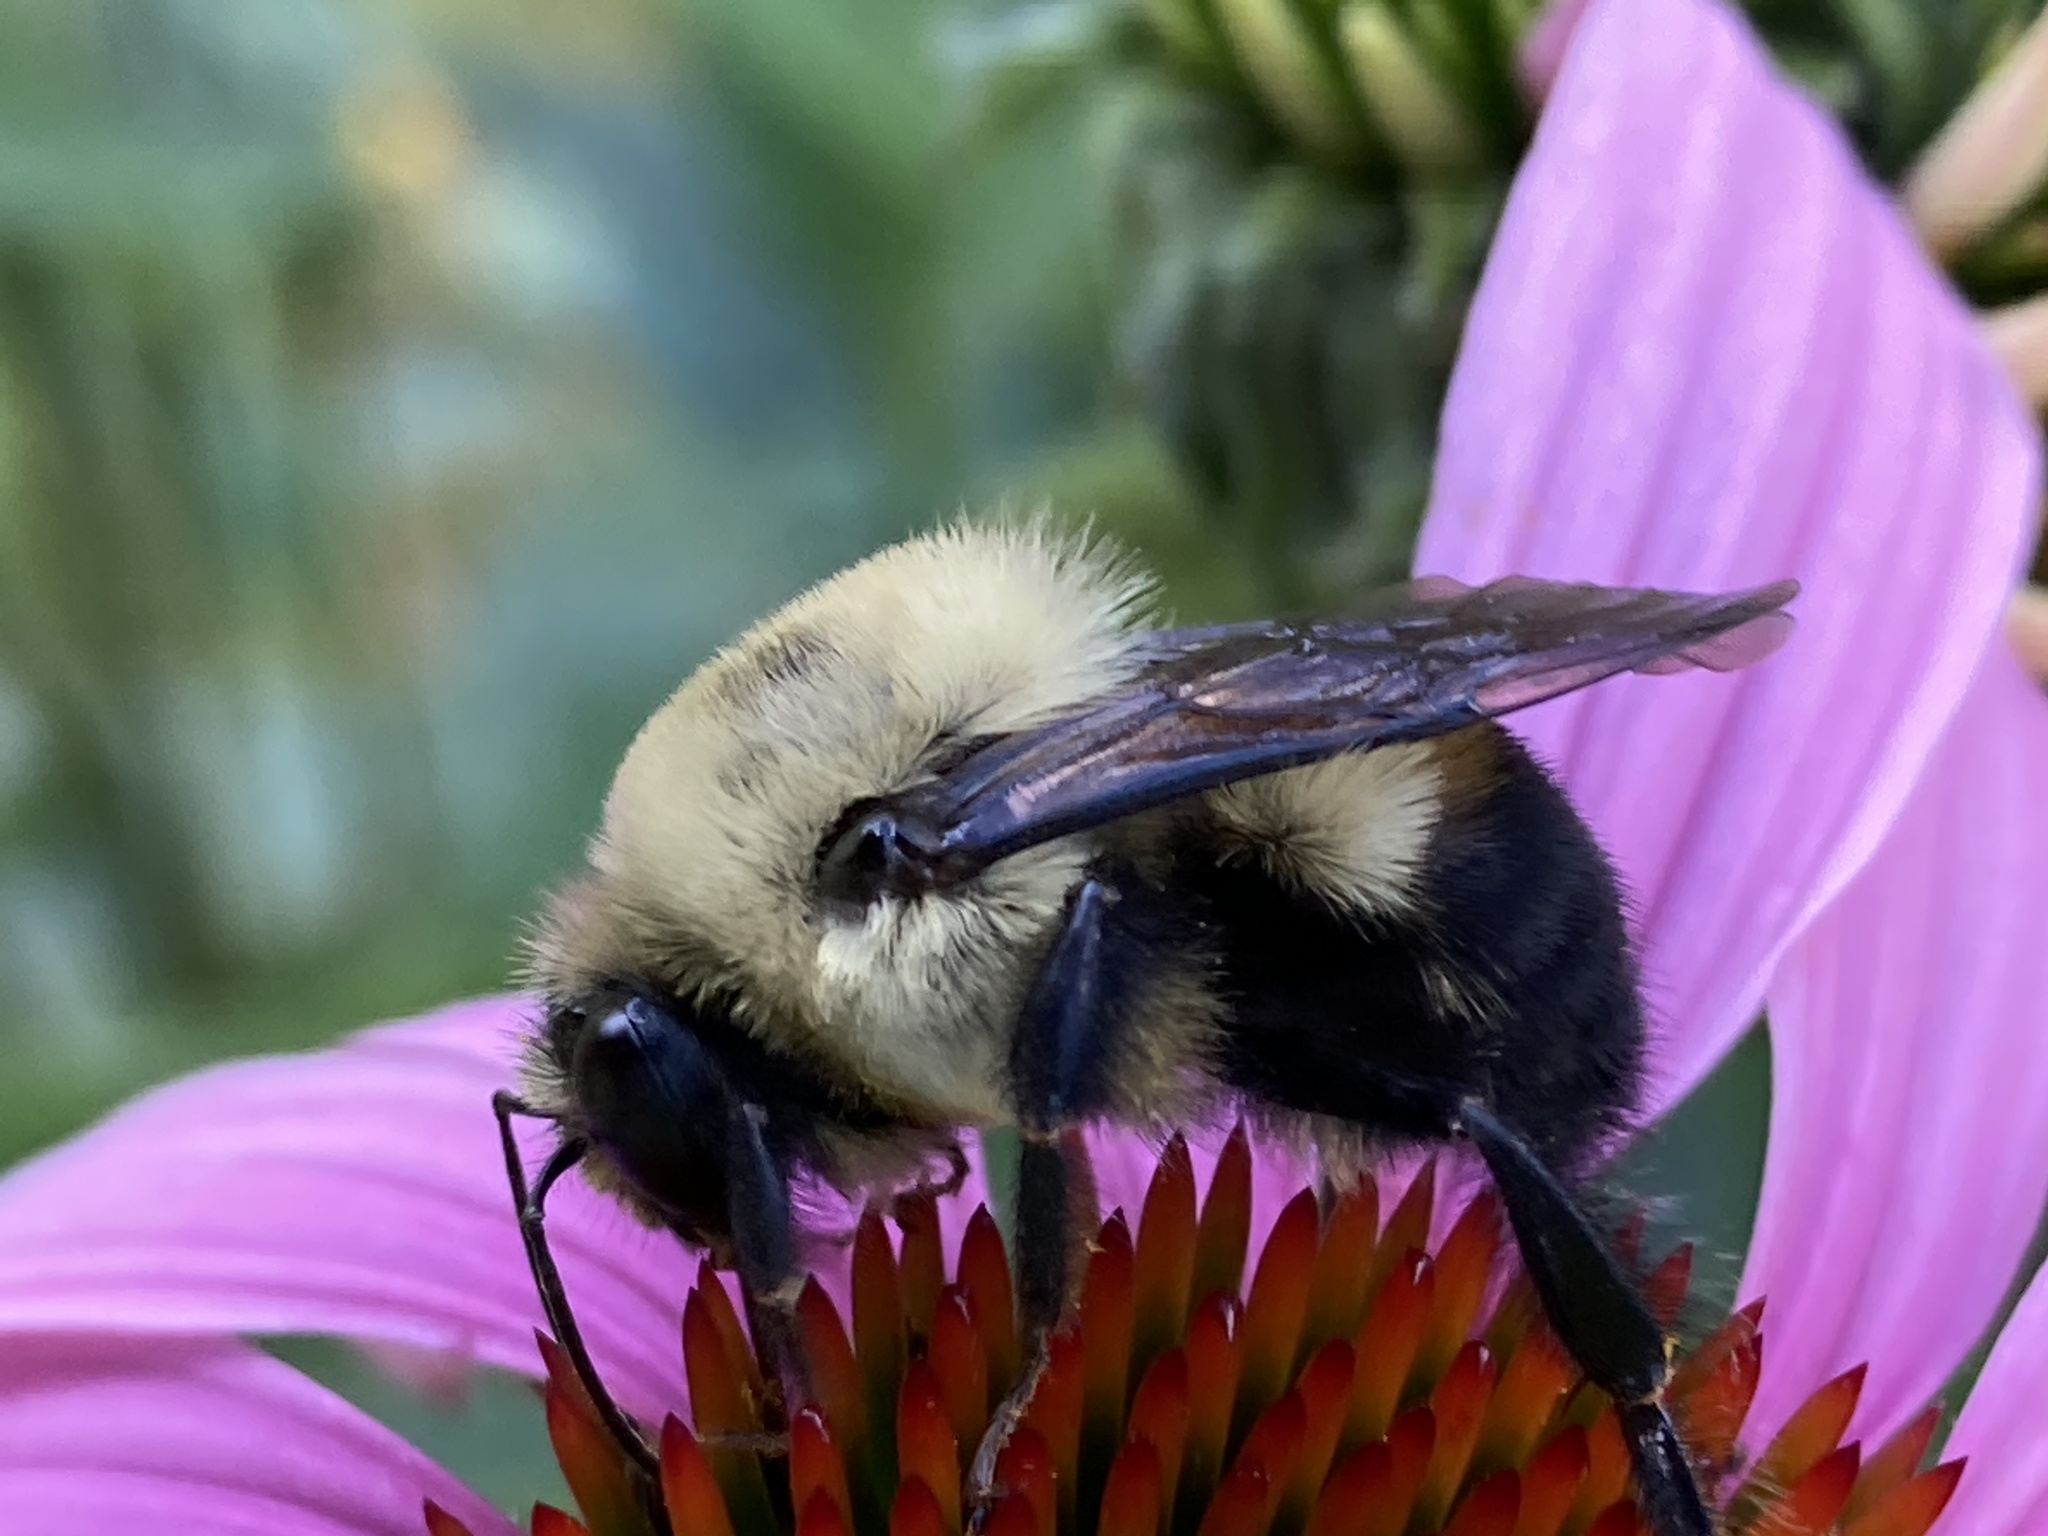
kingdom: Animalia
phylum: Arthropoda
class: Insecta
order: Hymenoptera
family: Apidae
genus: Bombus
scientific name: Bombus griseocollis
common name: Brown-belted bumble bee
